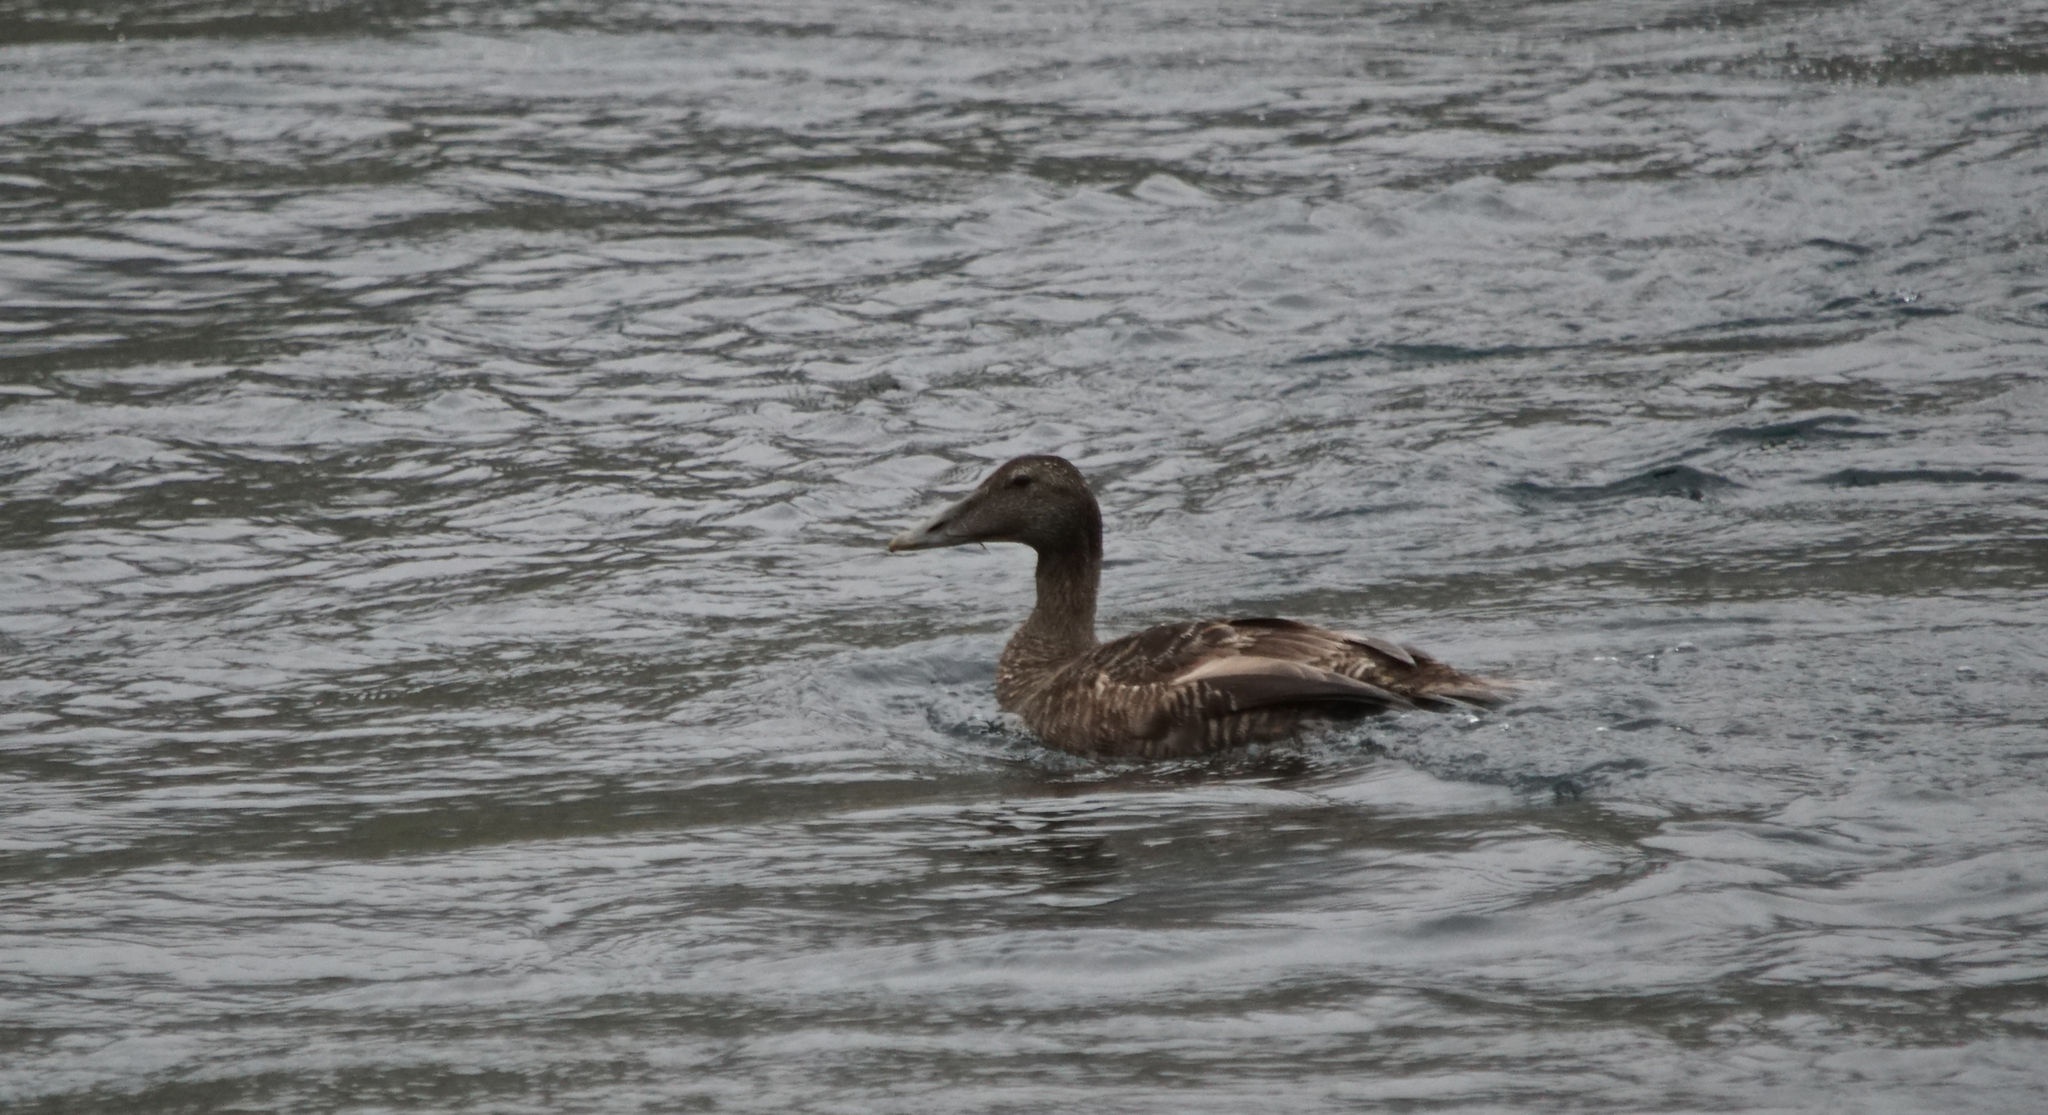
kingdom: Animalia
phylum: Chordata
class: Aves
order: Anseriformes
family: Anatidae
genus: Somateria
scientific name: Somateria mollissima
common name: Common eider
